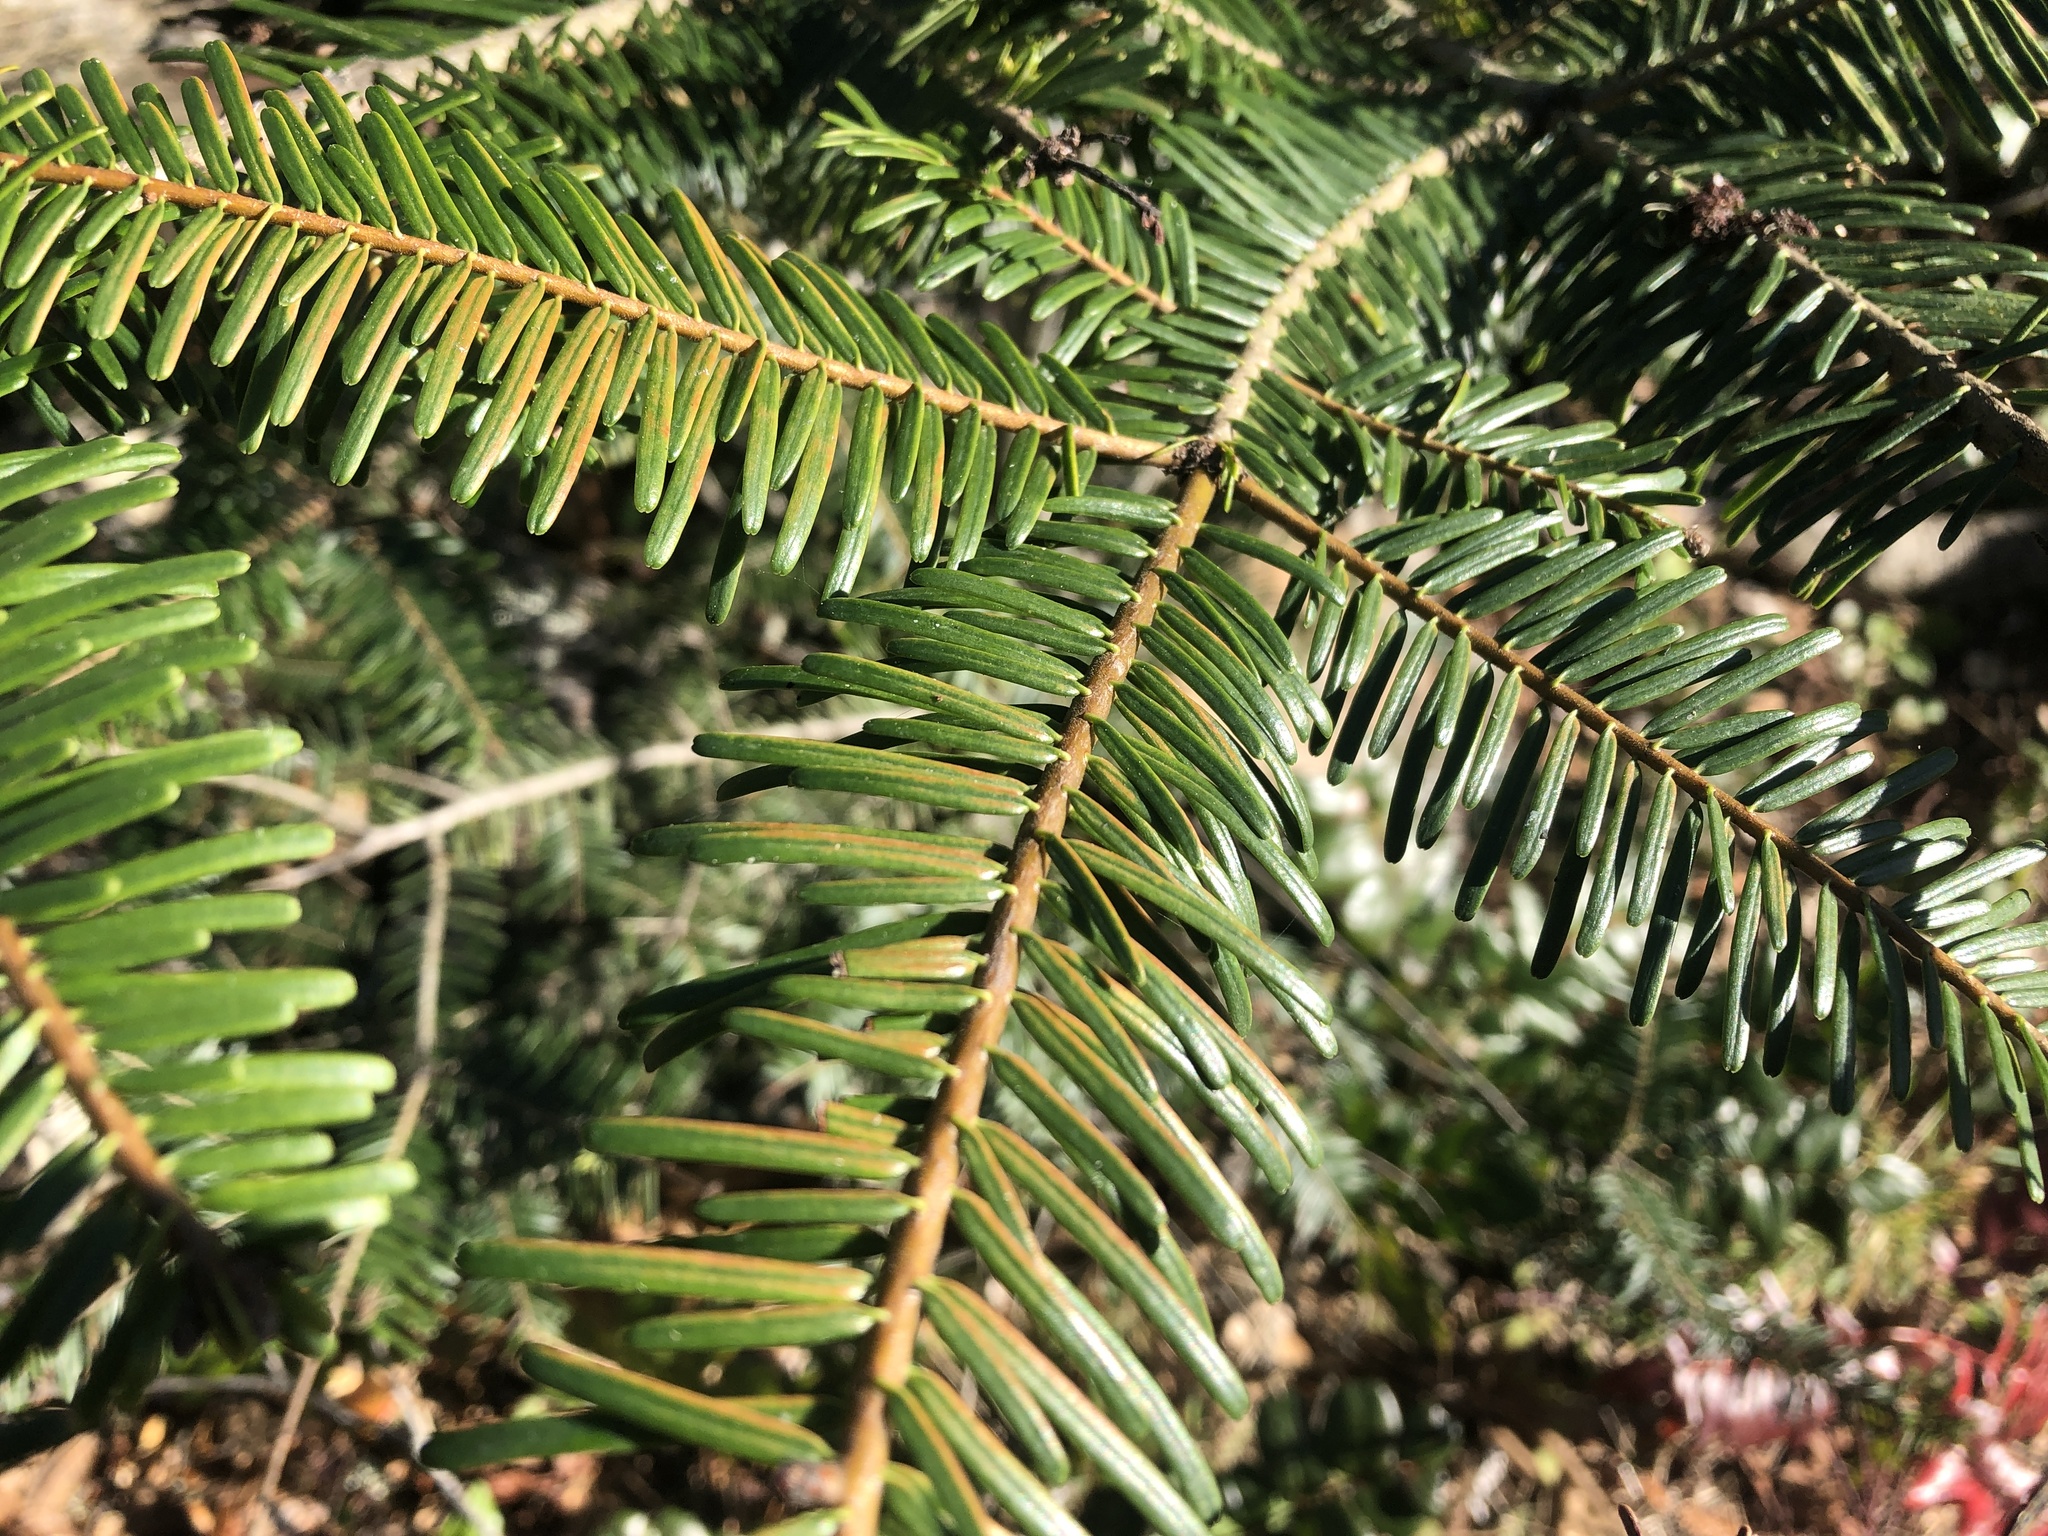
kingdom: Plantae
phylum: Tracheophyta
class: Pinopsida
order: Pinales
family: Pinaceae
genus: Abies
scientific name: Abies grandis
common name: Giant fir
